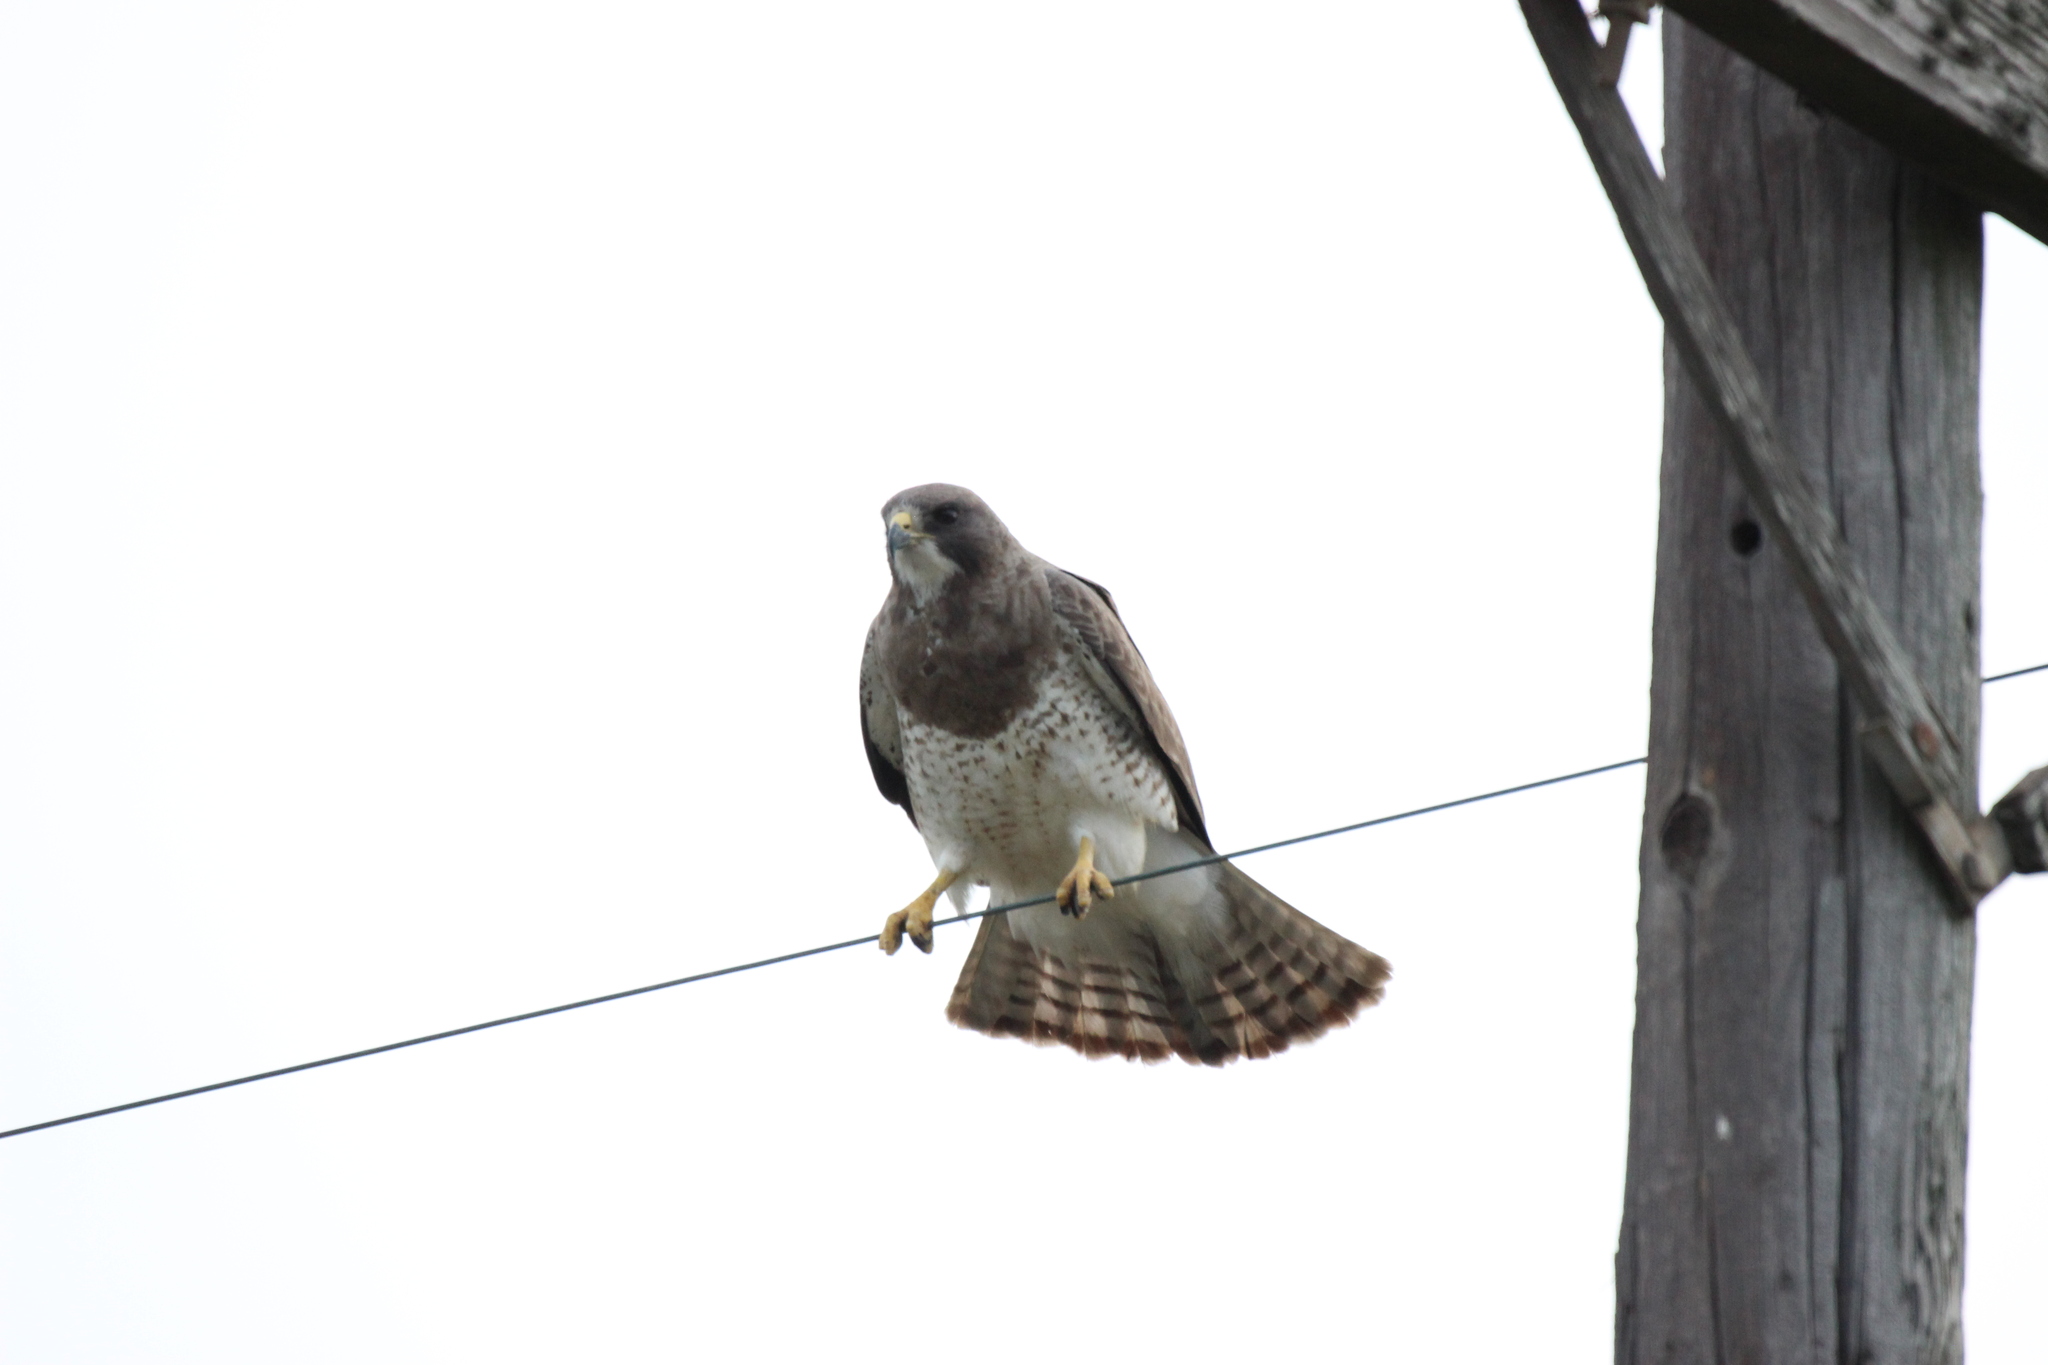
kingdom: Animalia
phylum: Chordata
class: Aves
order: Accipitriformes
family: Accipitridae
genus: Buteo
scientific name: Buteo swainsoni
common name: Swainson's hawk
